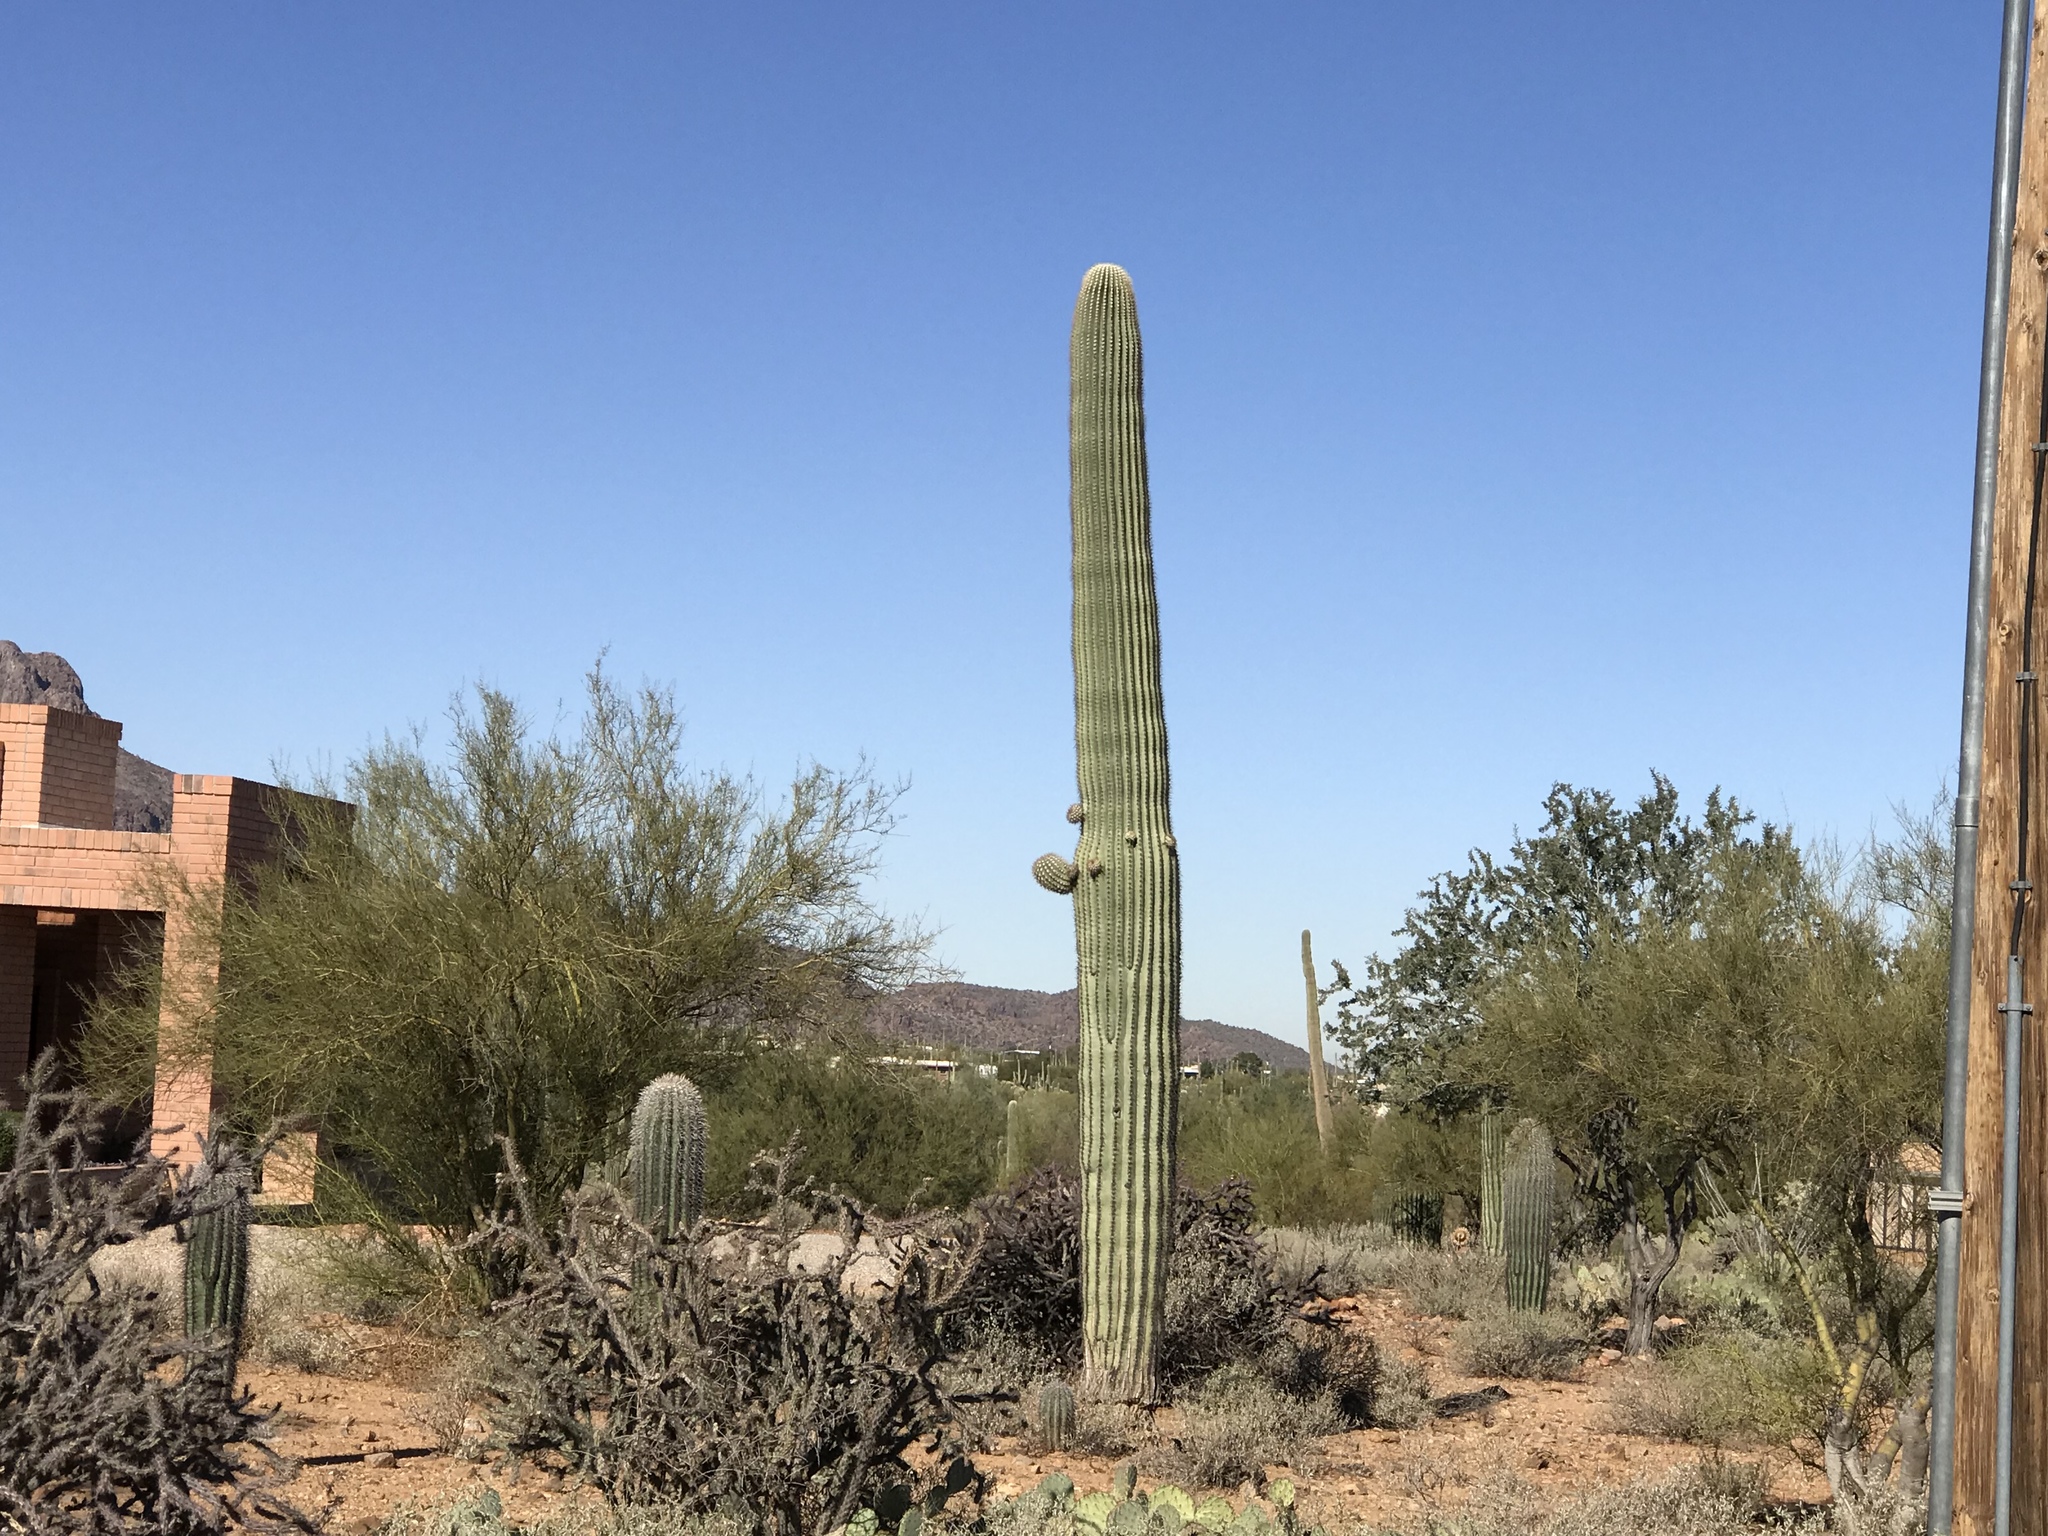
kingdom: Plantae
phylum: Tracheophyta
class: Magnoliopsida
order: Caryophyllales
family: Cactaceae
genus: Carnegiea
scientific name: Carnegiea gigantea
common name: Saguaro
